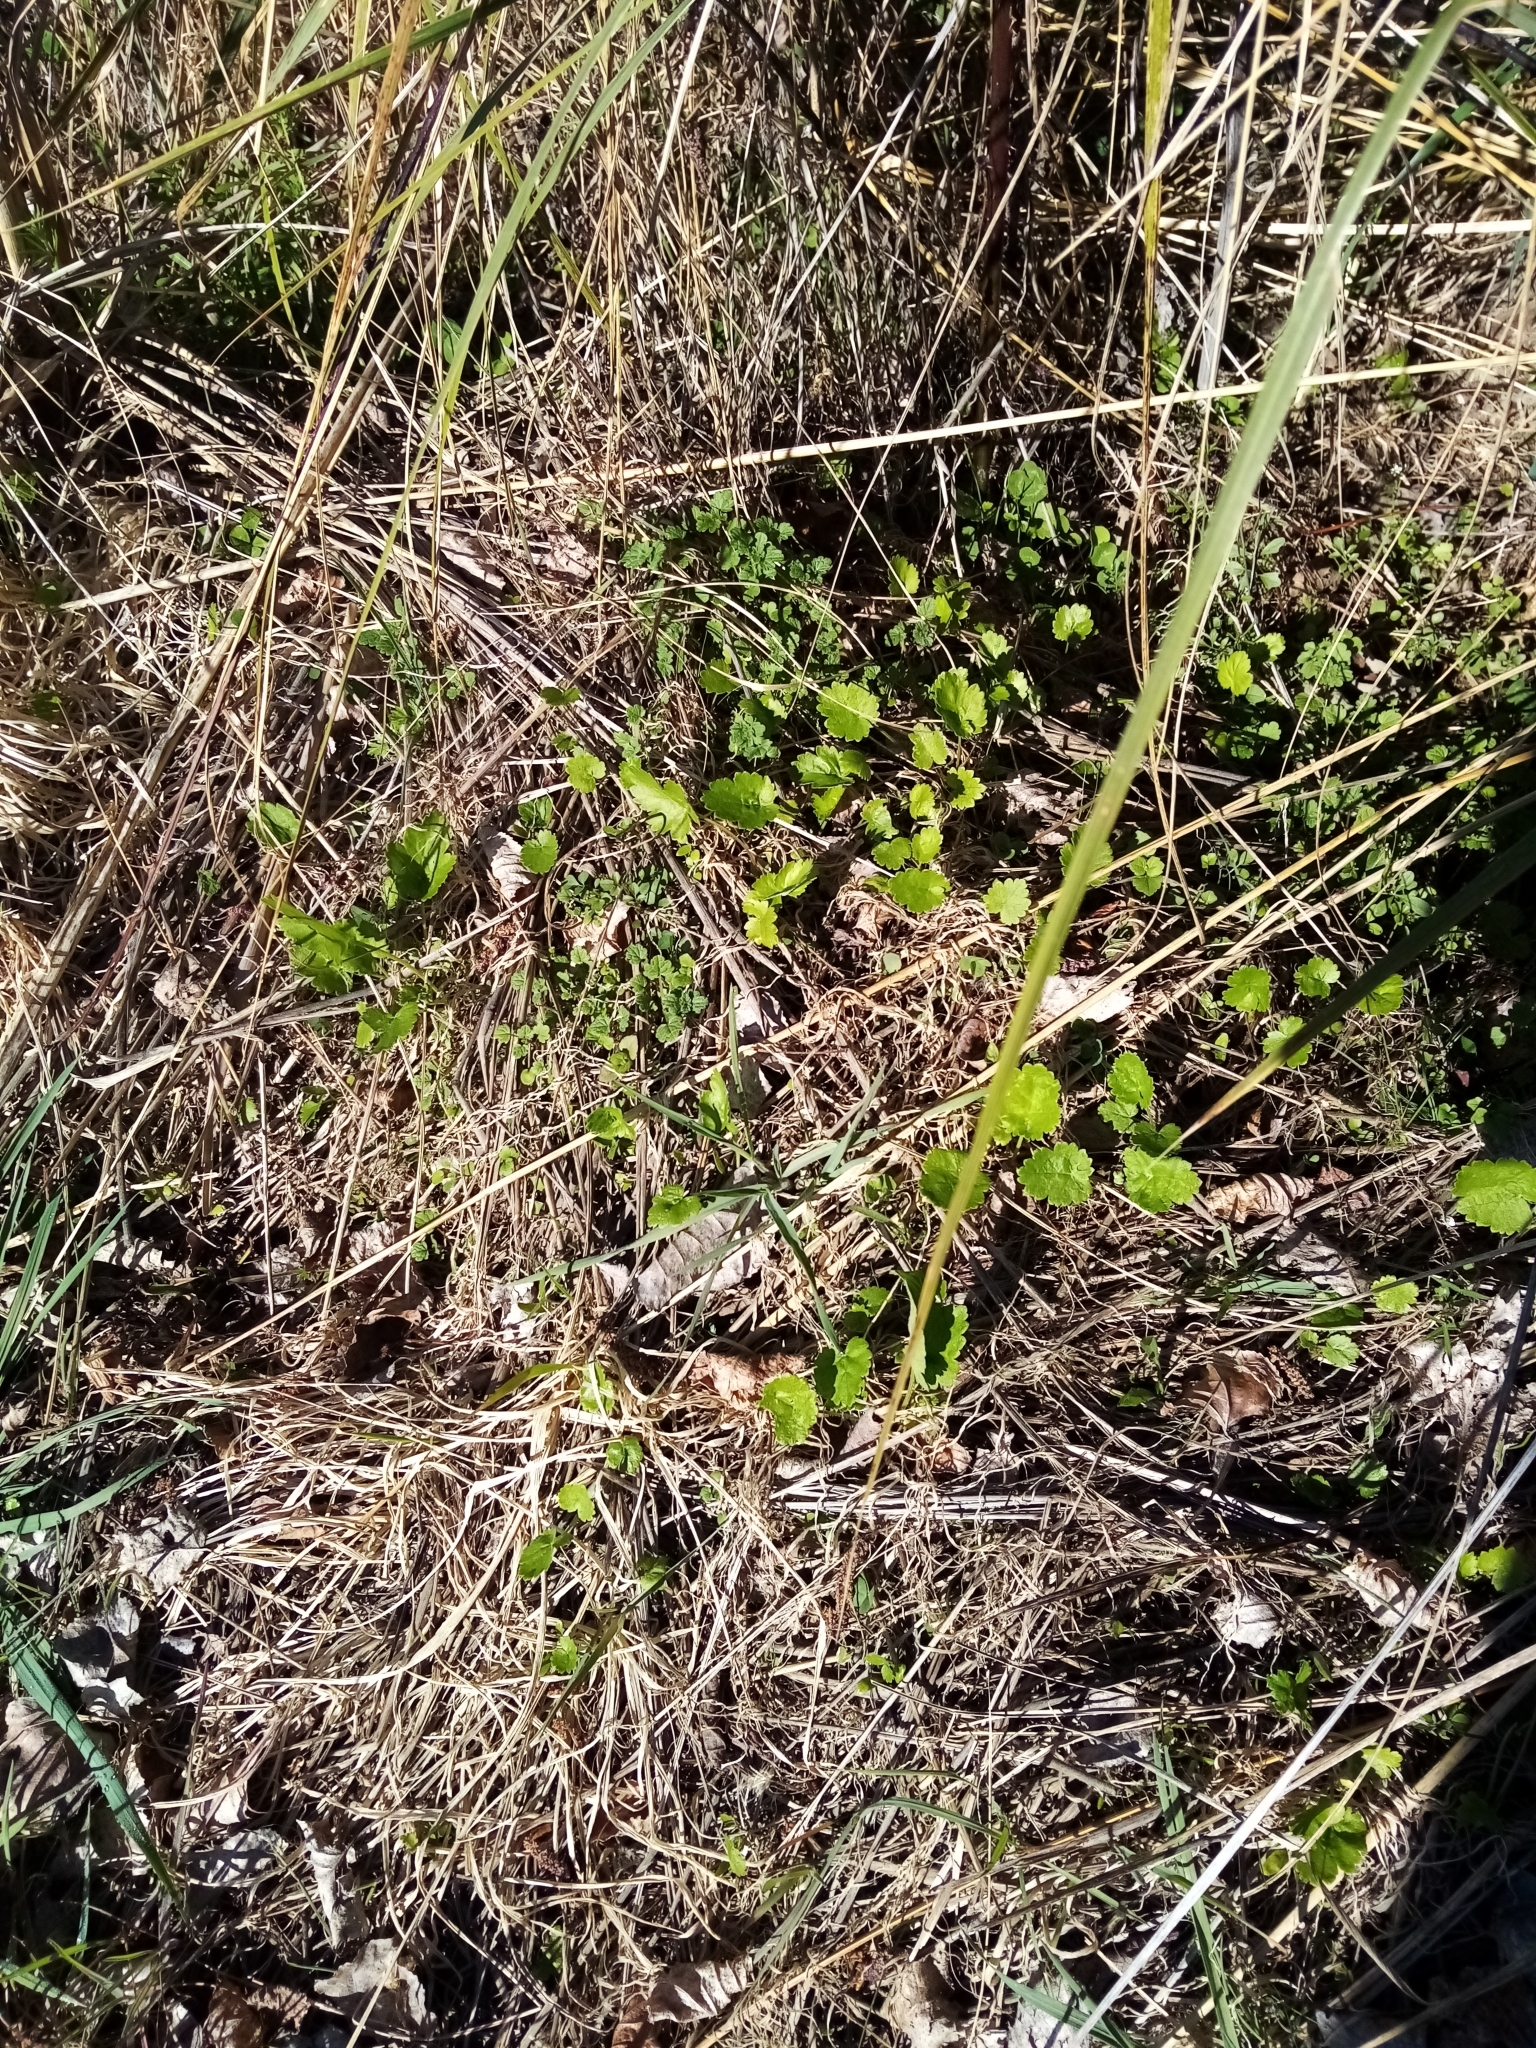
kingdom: Plantae
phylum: Tracheophyta
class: Magnoliopsida
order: Apiales
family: Apiaceae
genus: Pastinaca
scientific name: Pastinaca sativa
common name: Wild parsnip
